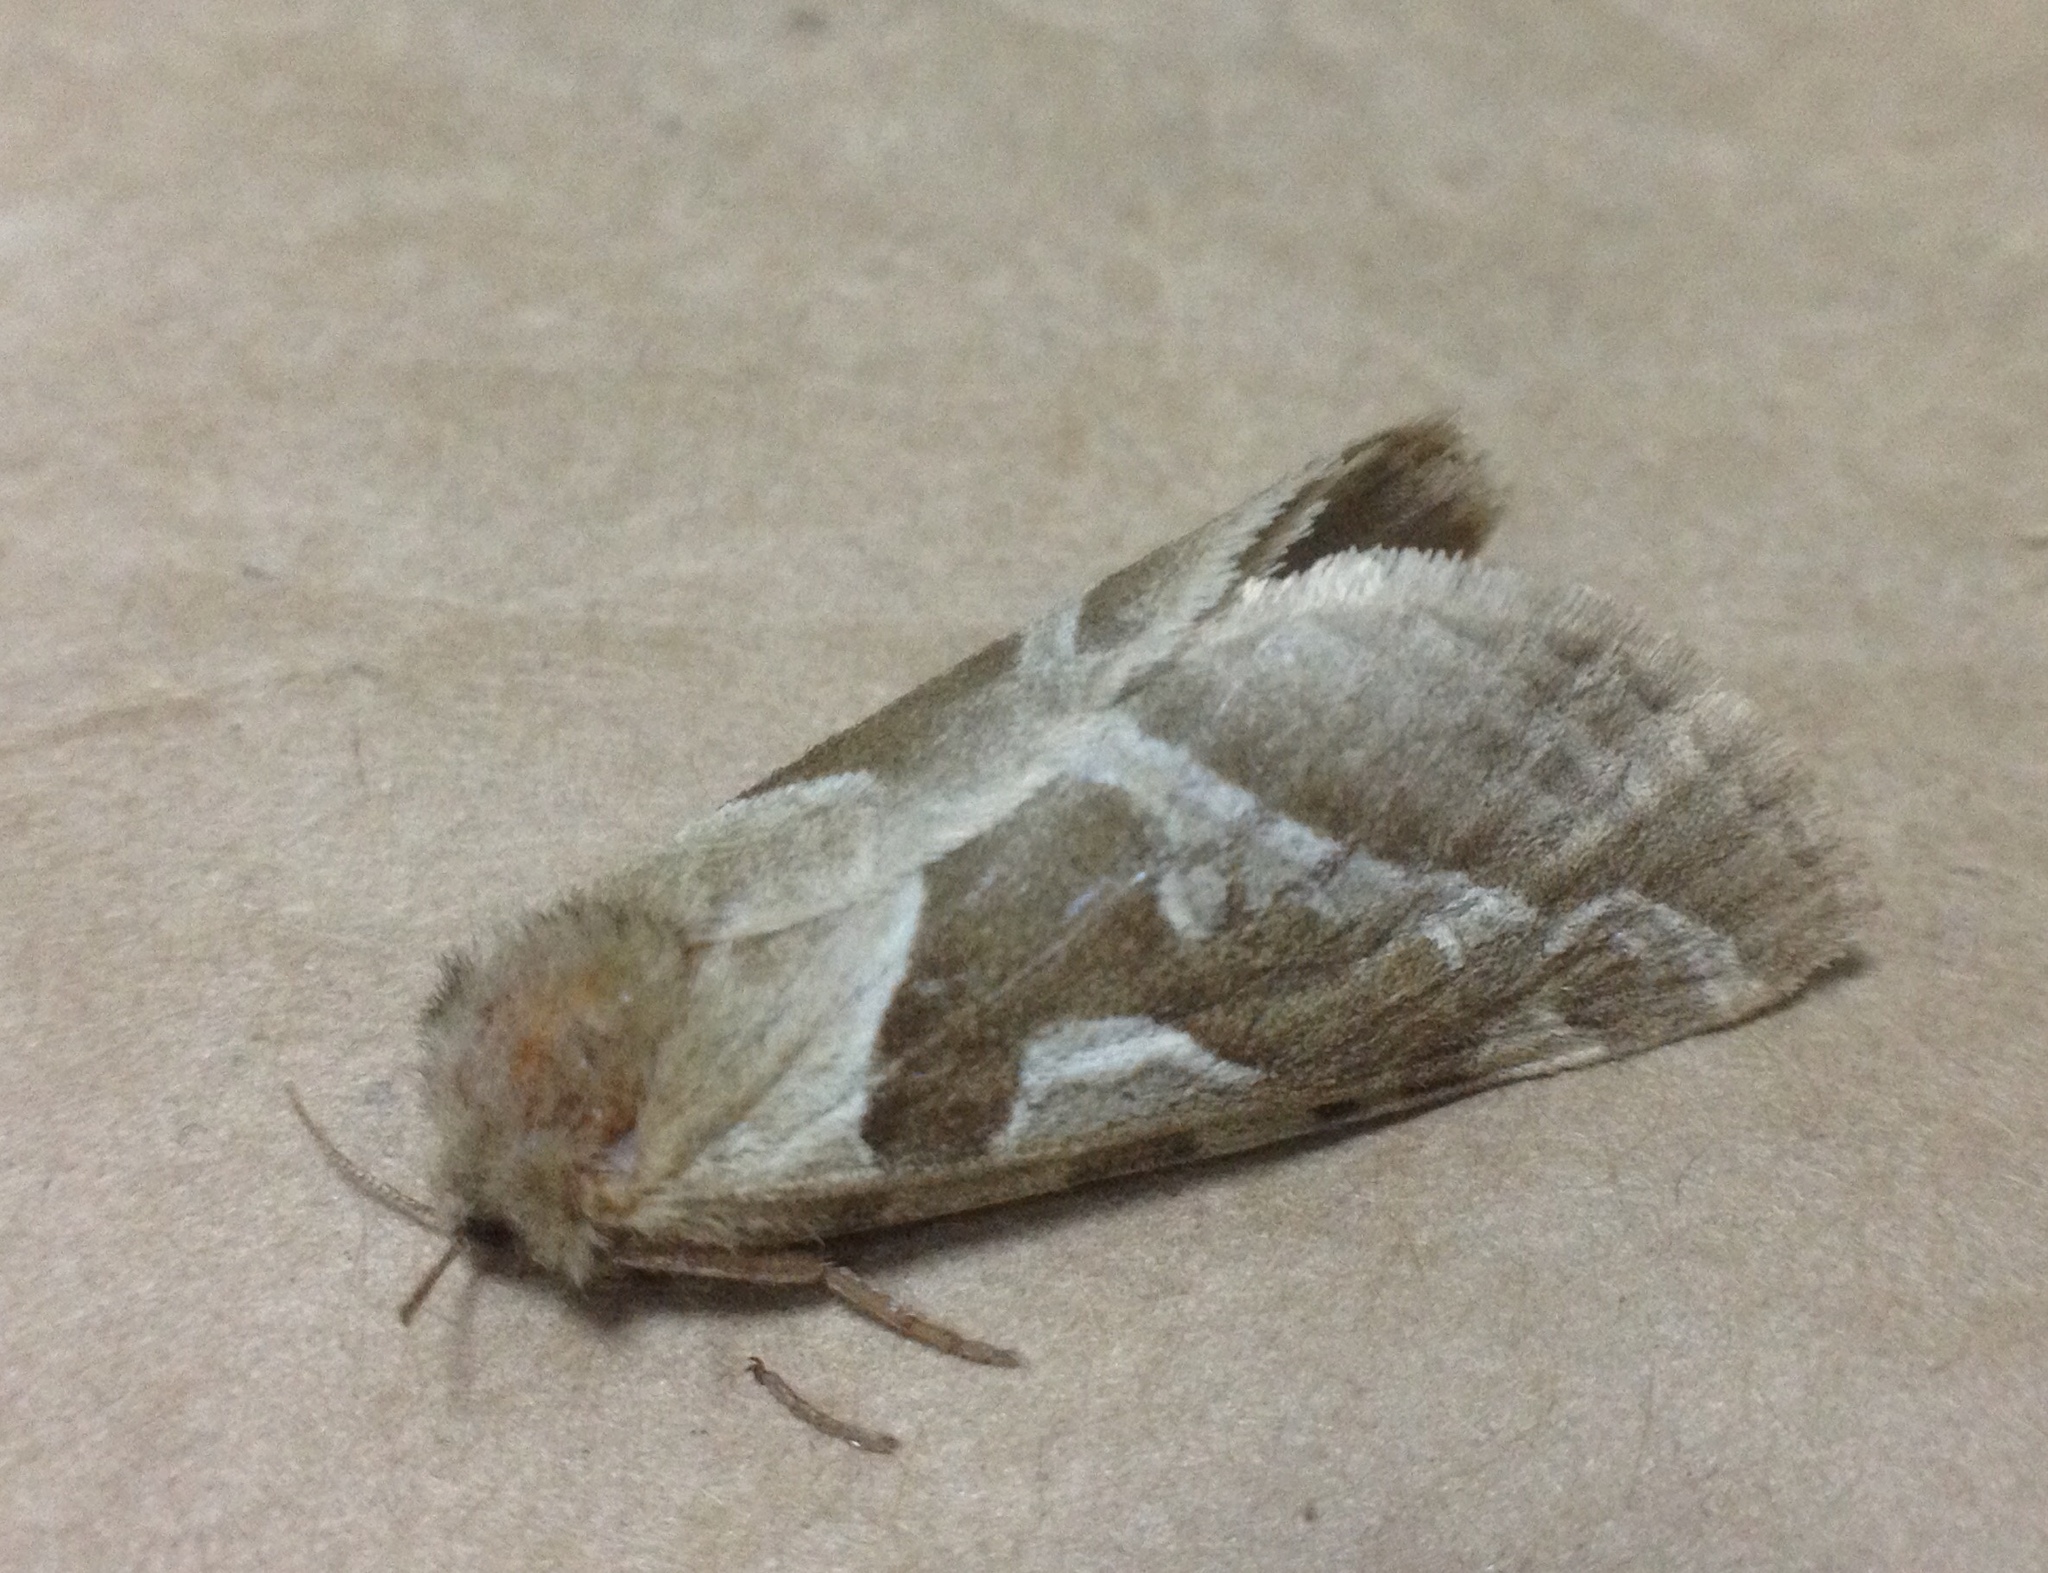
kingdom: Animalia
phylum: Arthropoda
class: Insecta
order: Lepidoptera
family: Hepialidae
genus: Triodia
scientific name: Triodia sylvina
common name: Orange swift
